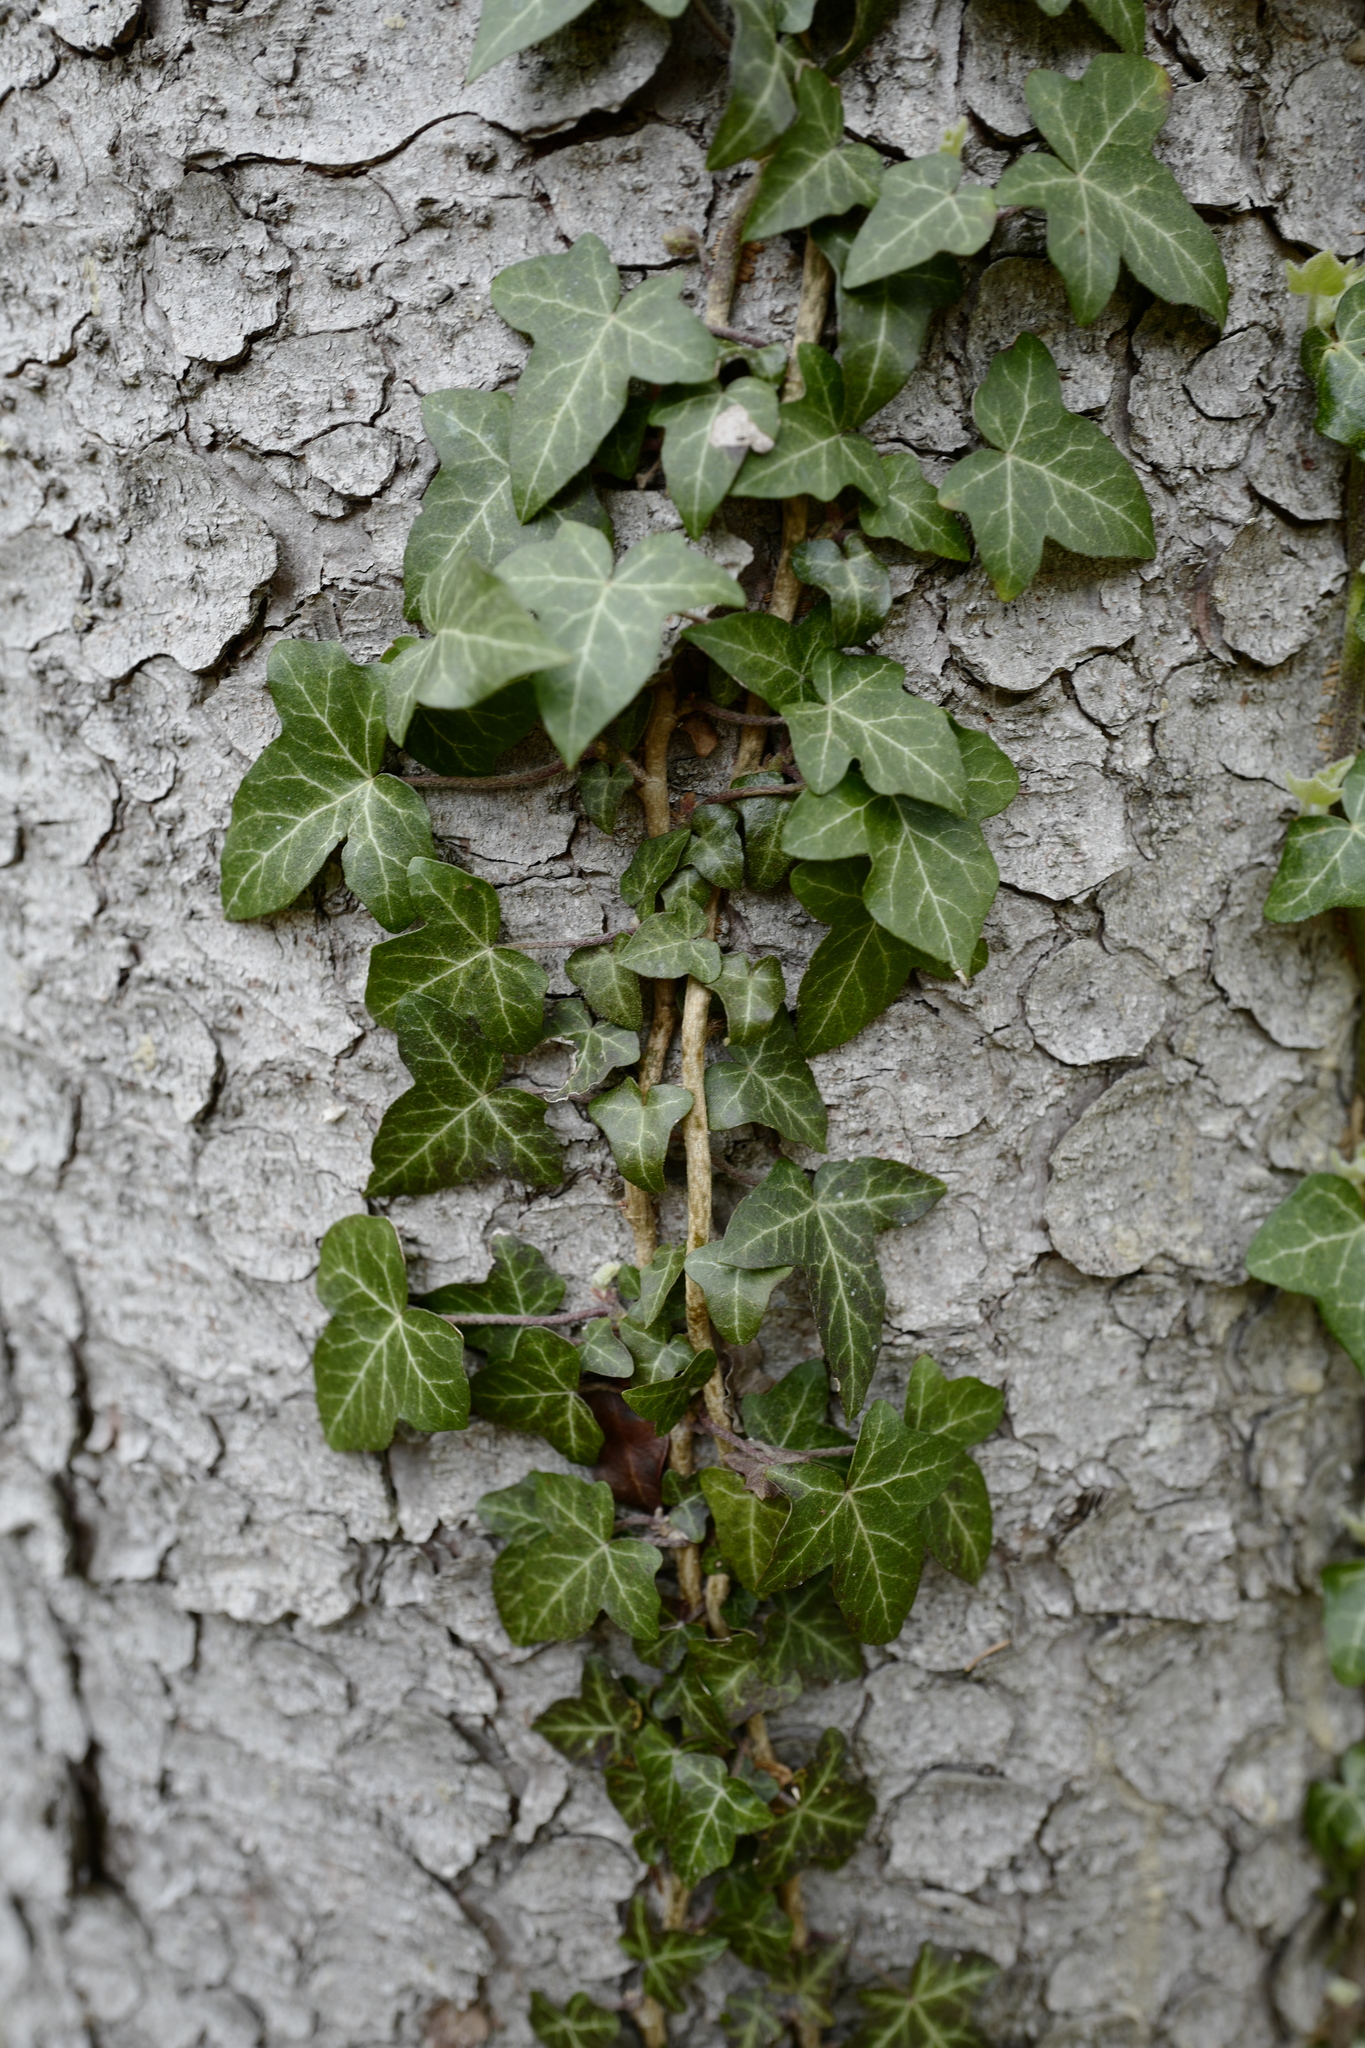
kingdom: Plantae
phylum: Tracheophyta
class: Magnoliopsida
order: Apiales
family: Araliaceae
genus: Hedera
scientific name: Hedera helix
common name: Ivy
